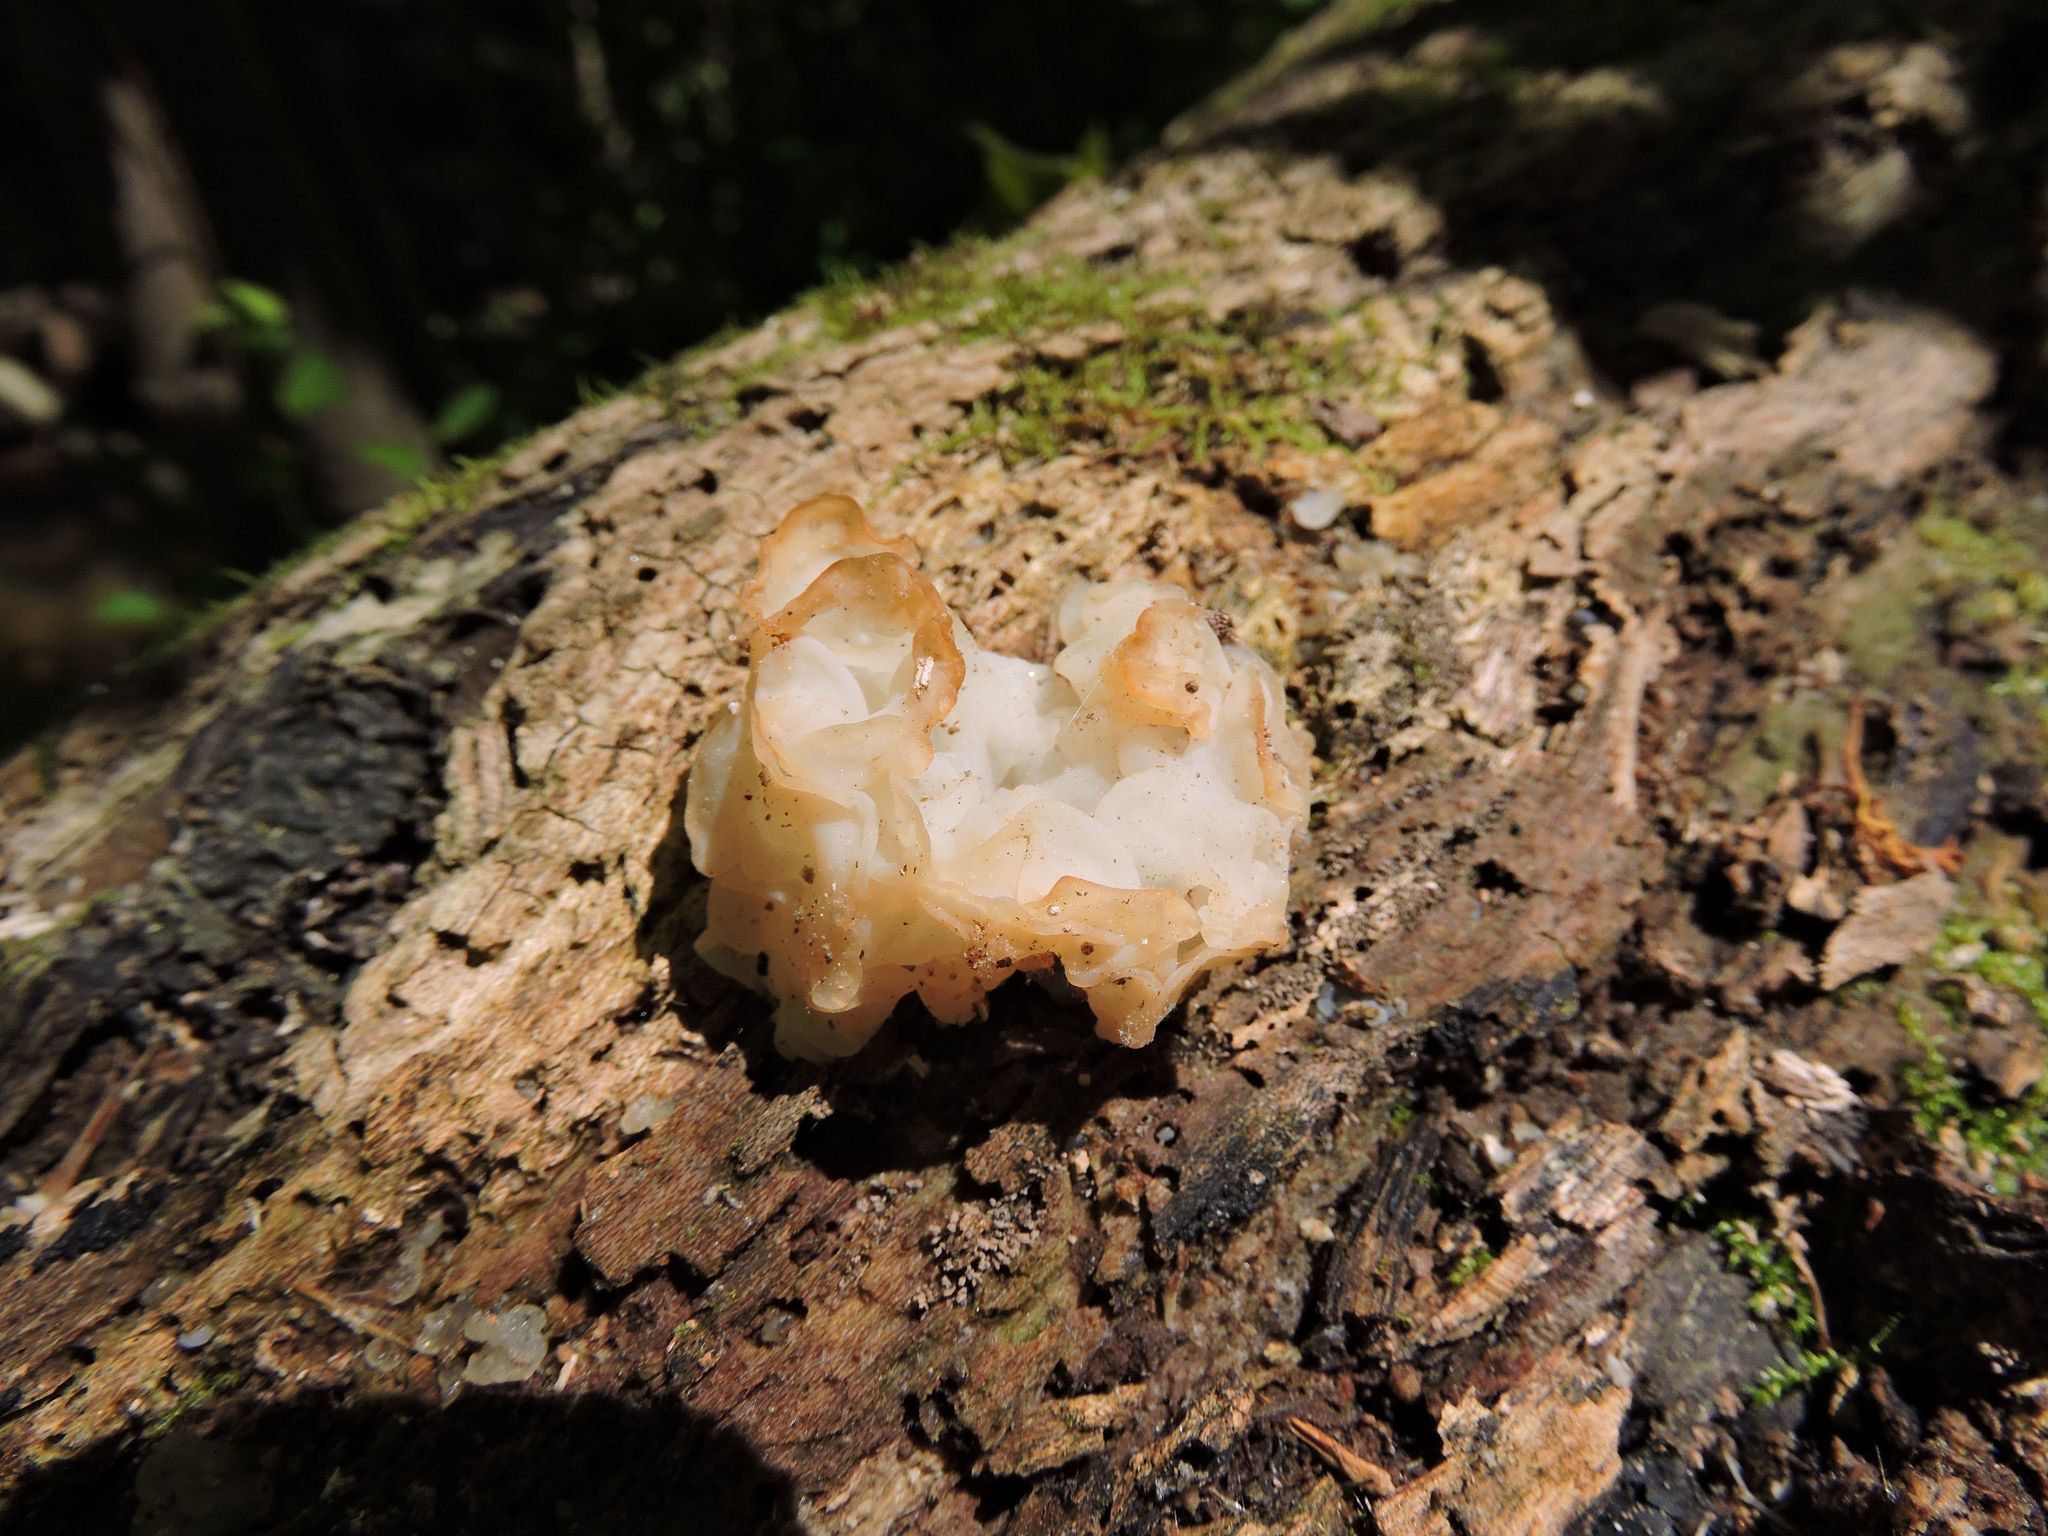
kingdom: Fungi
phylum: Basidiomycota
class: Tremellomycetes
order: Tremellales
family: Tremellaceae
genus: Tremella
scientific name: Tremella fuciformis
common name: Snow fungus
